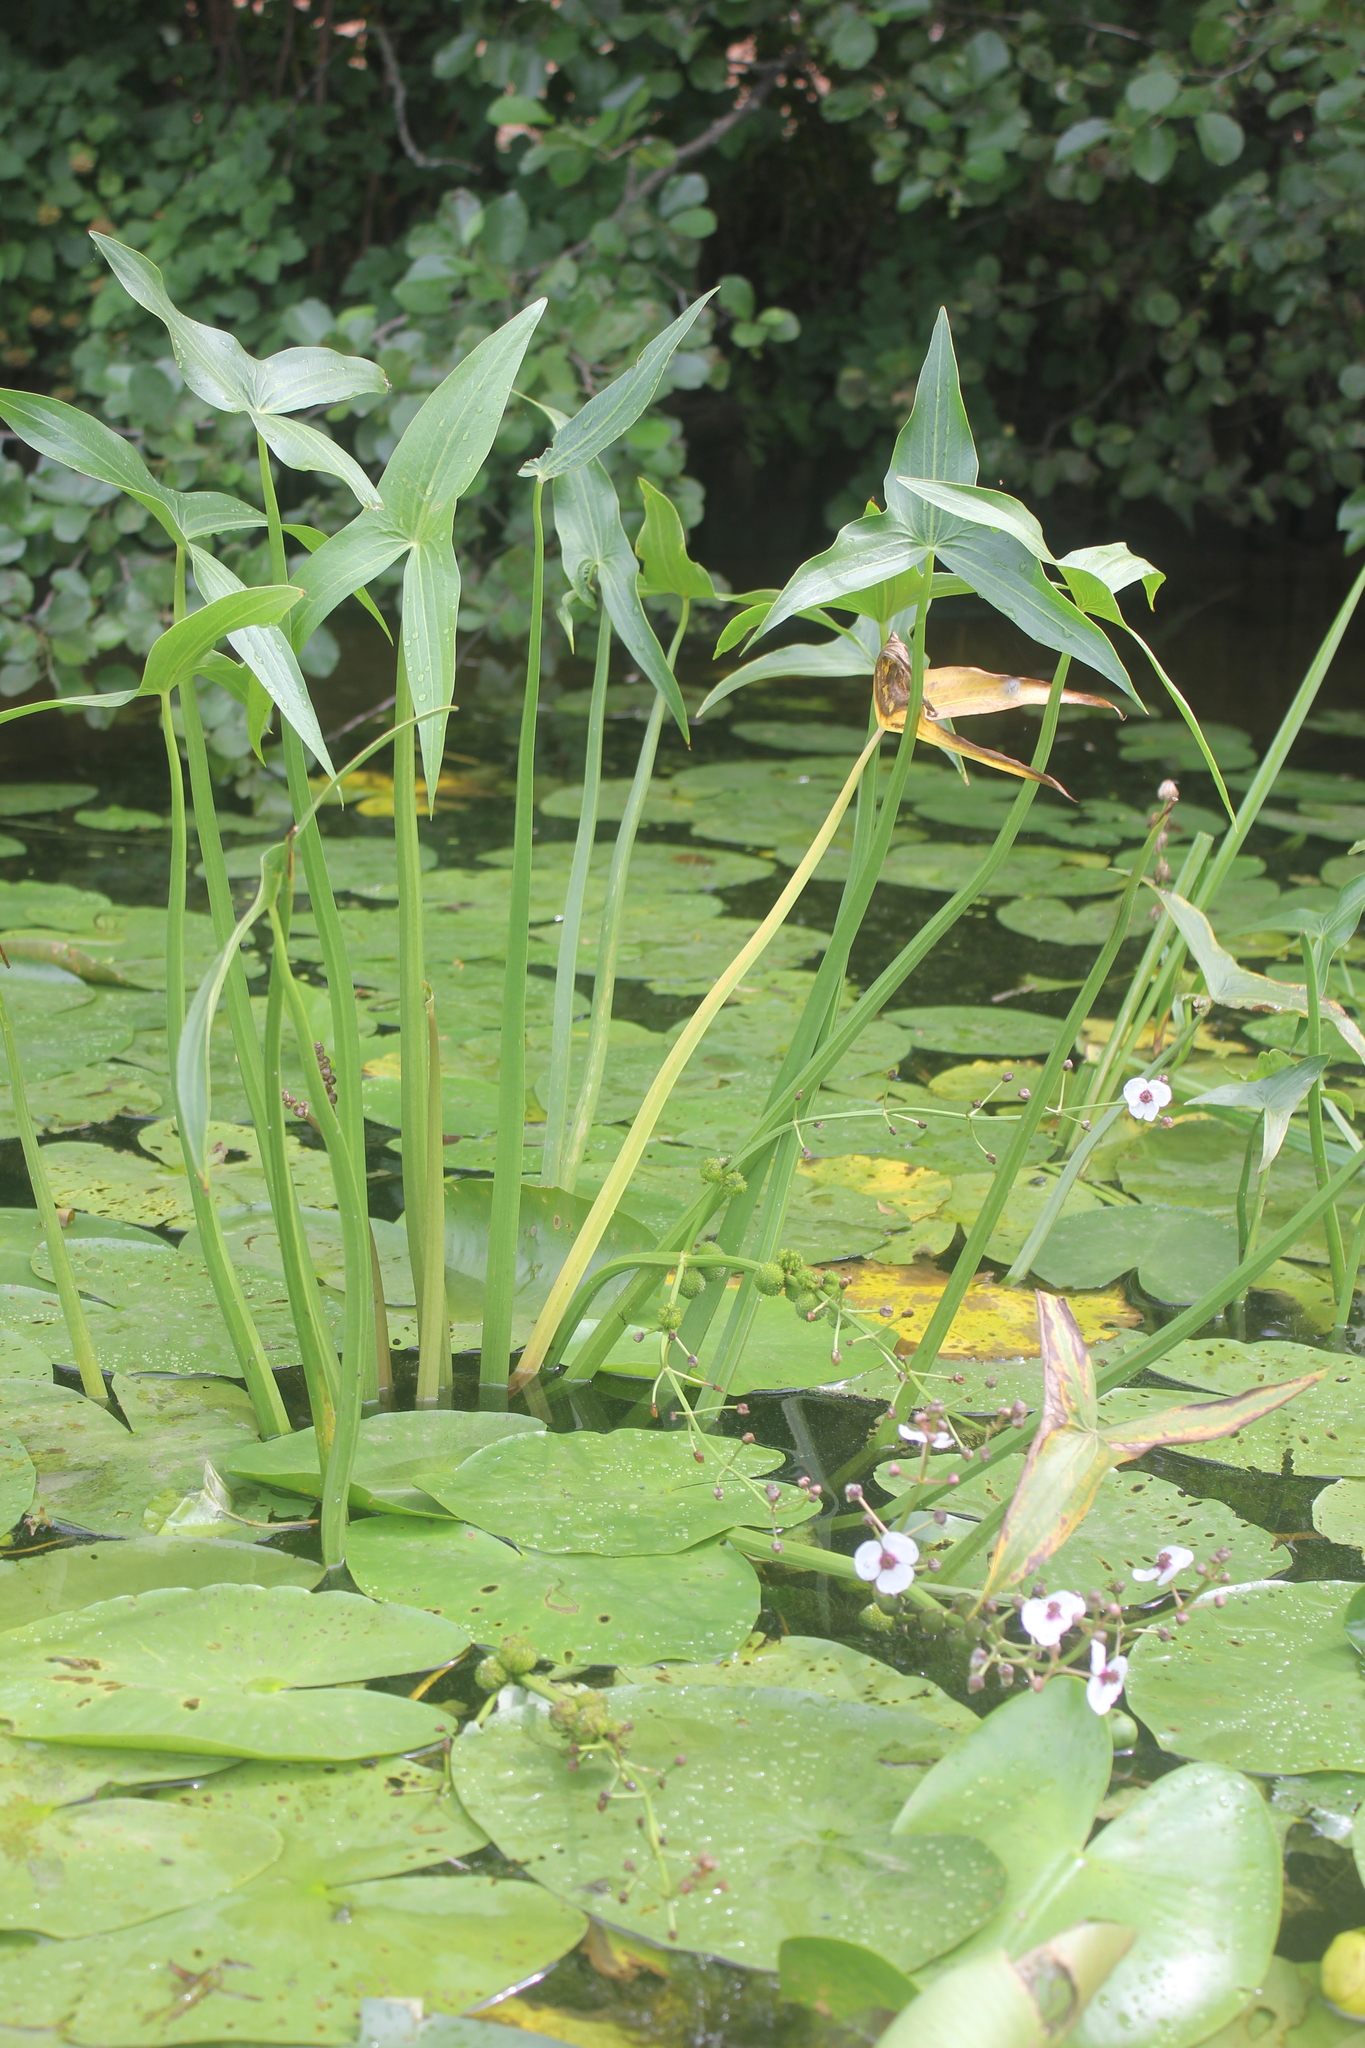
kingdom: Plantae
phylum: Tracheophyta
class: Liliopsida
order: Alismatales
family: Alismataceae
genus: Sagittaria
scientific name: Sagittaria sagittifolia
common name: Arrowhead
